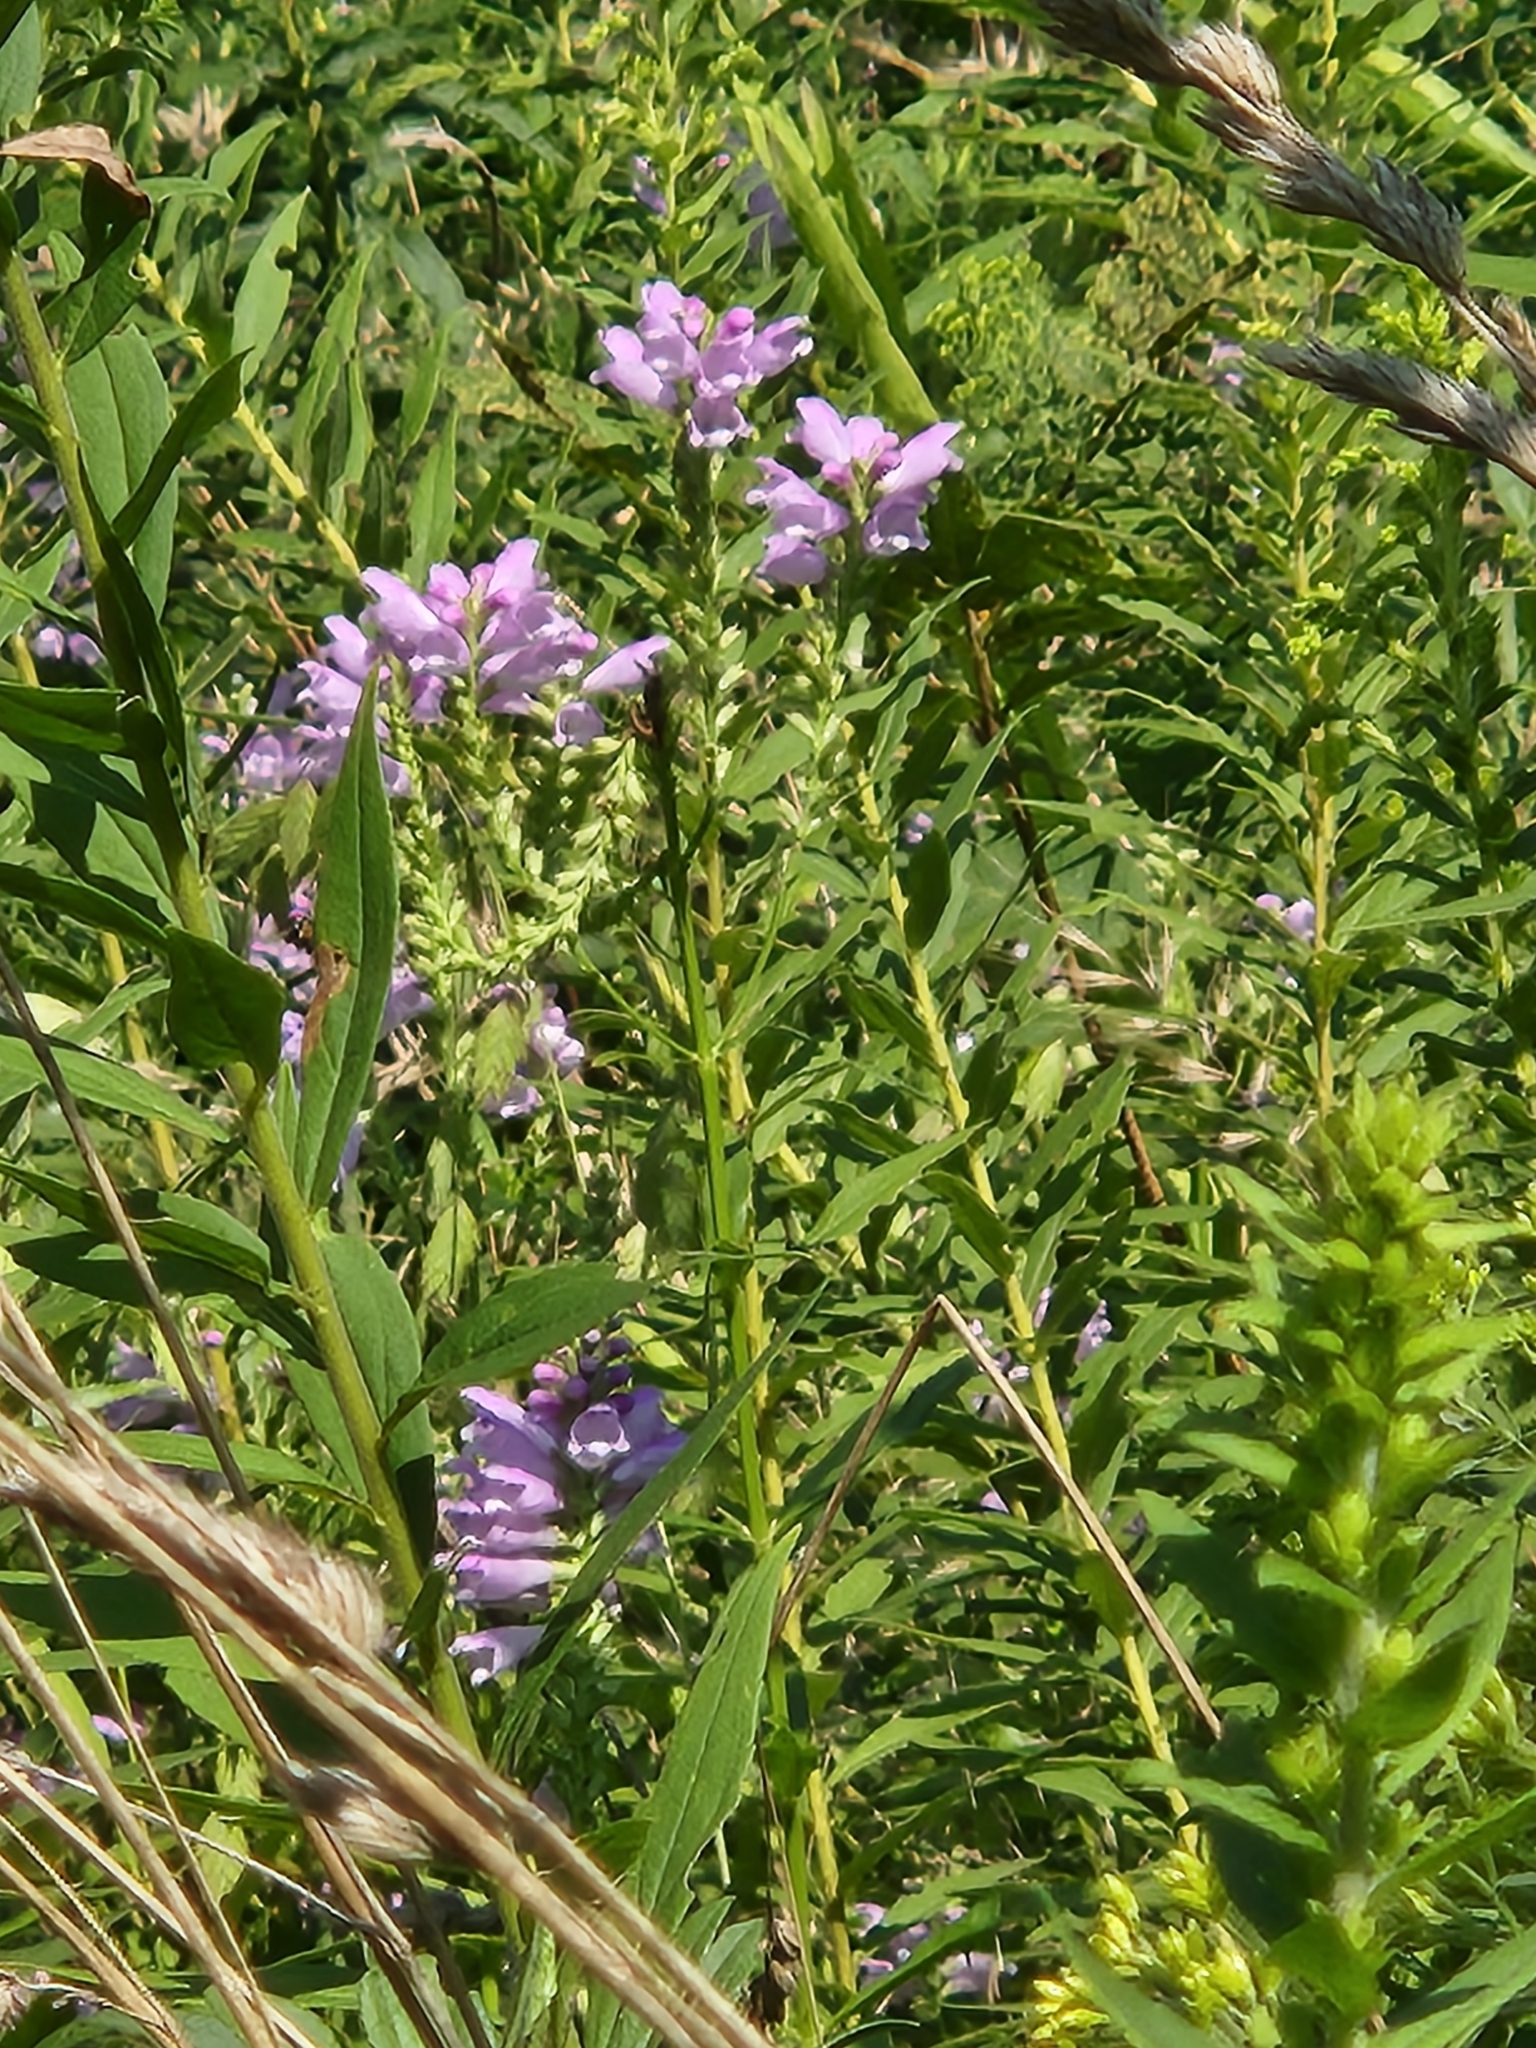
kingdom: Plantae
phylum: Tracheophyta
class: Magnoliopsida
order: Lamiales
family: Lamiaceae
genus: Physostegia
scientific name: Physostegia virginiana
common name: Obedient-plant
